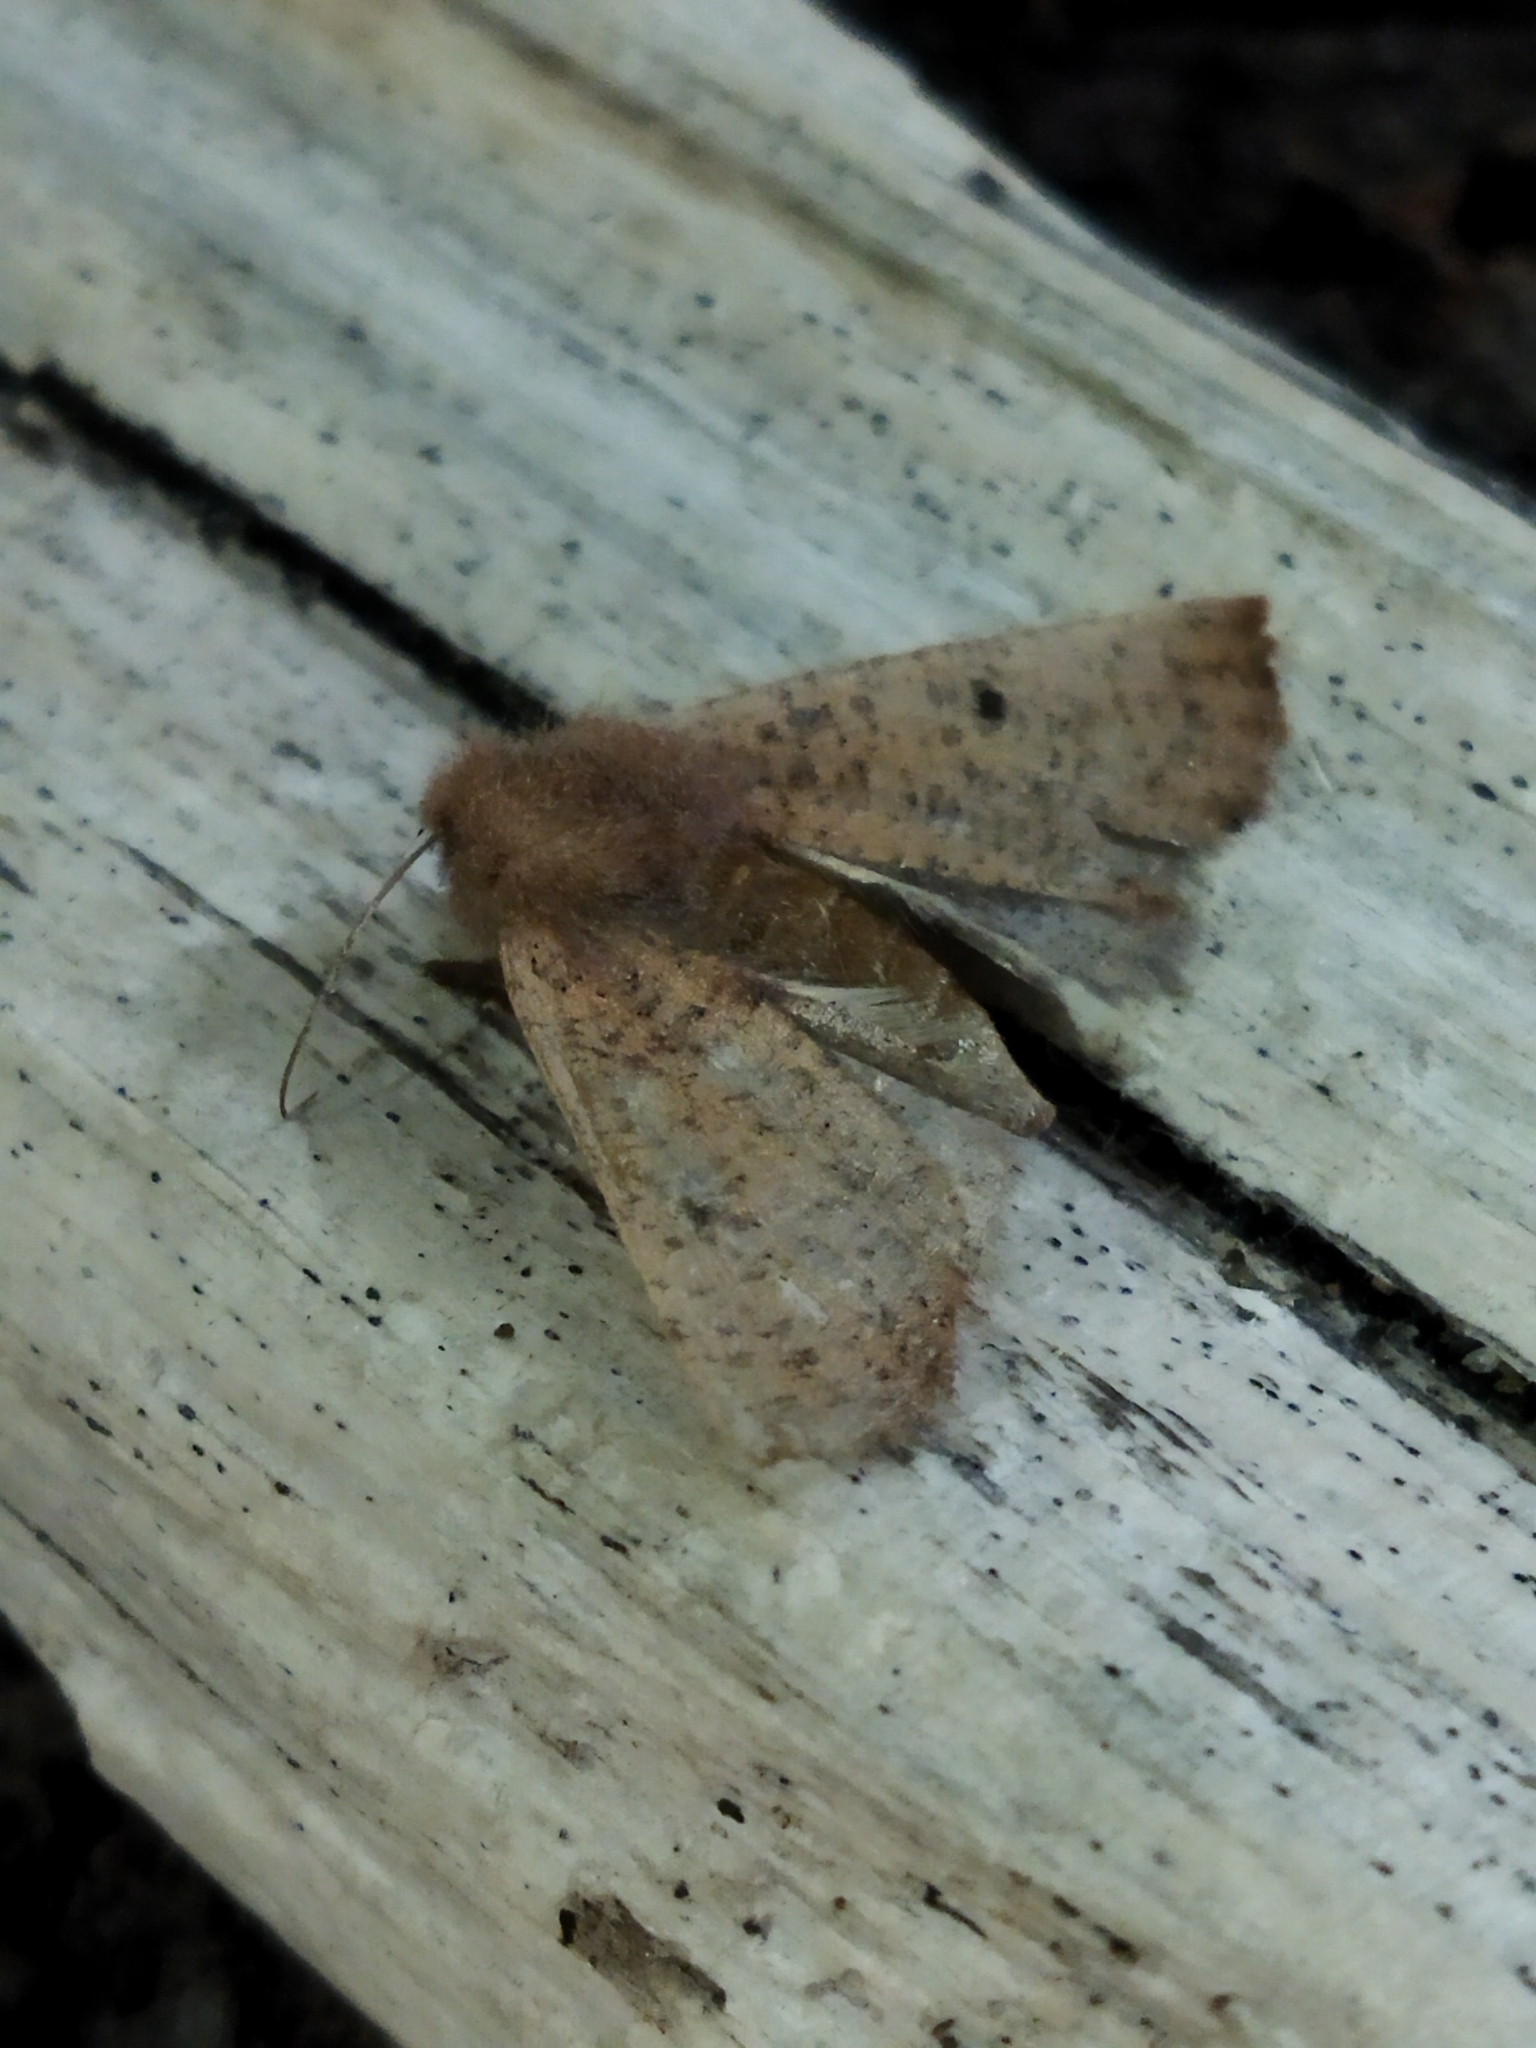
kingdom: Animalia
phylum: Arthropoda
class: Insecta
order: Lepidoptera
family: Geometridae
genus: Dasycorsa
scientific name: Dasycorsa modesta
